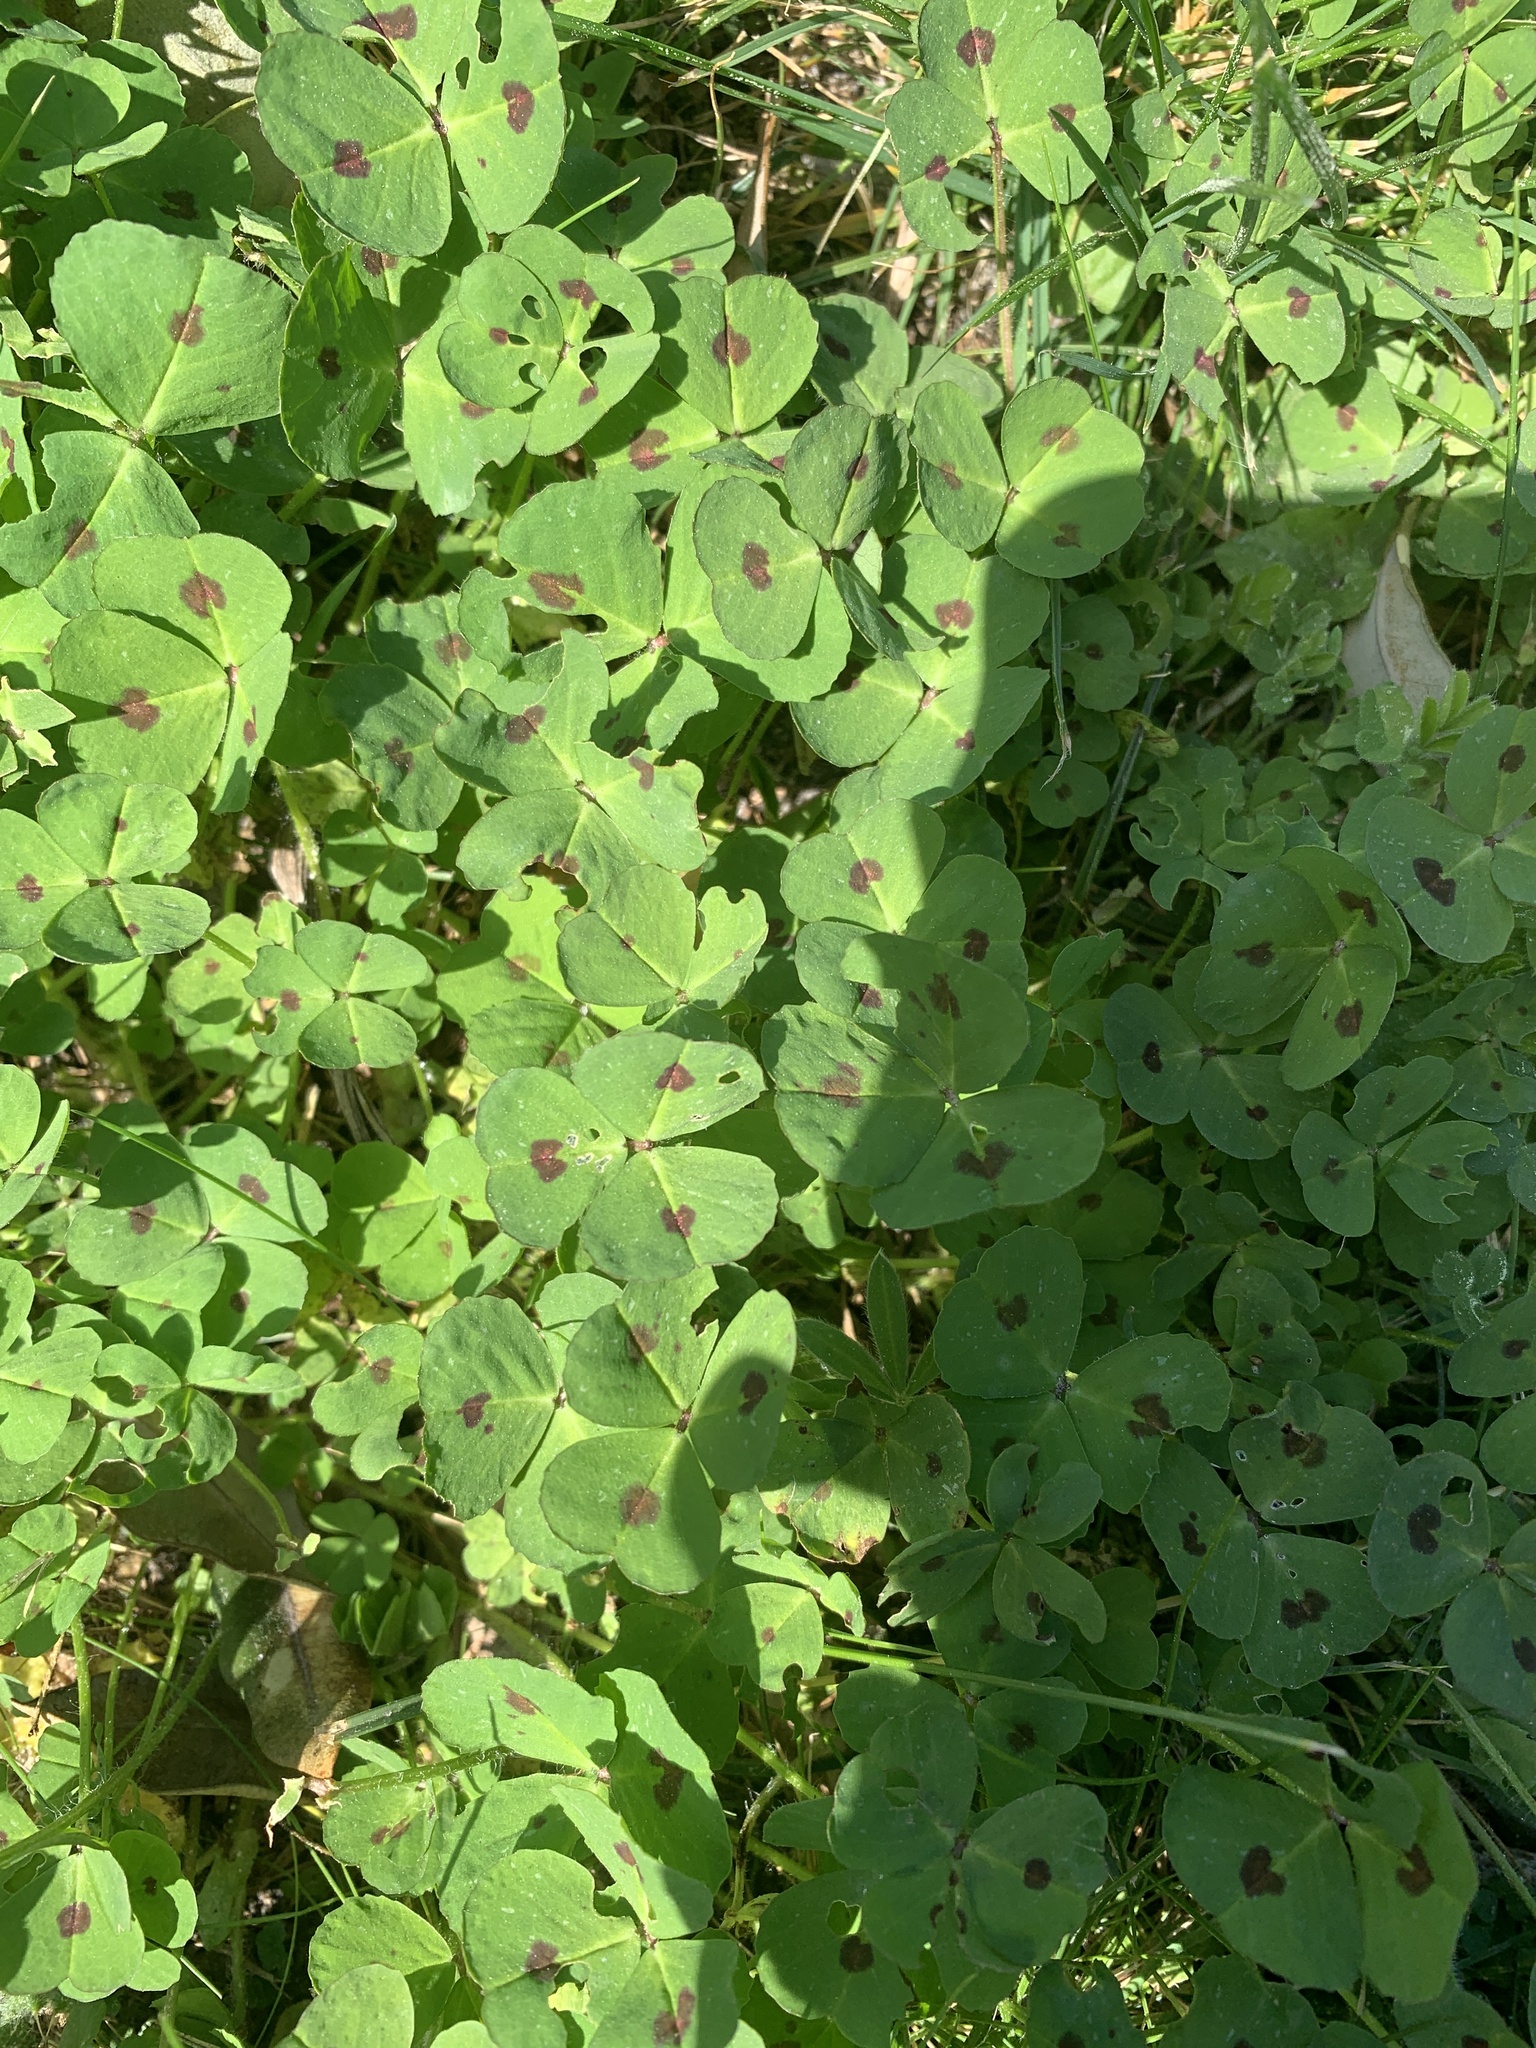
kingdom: Plantae
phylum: Tracheophyta
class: Magnoliopsida
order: Fabales
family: Fabaceae
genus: Medicago
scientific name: Medicago arabica
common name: Spotted medick
